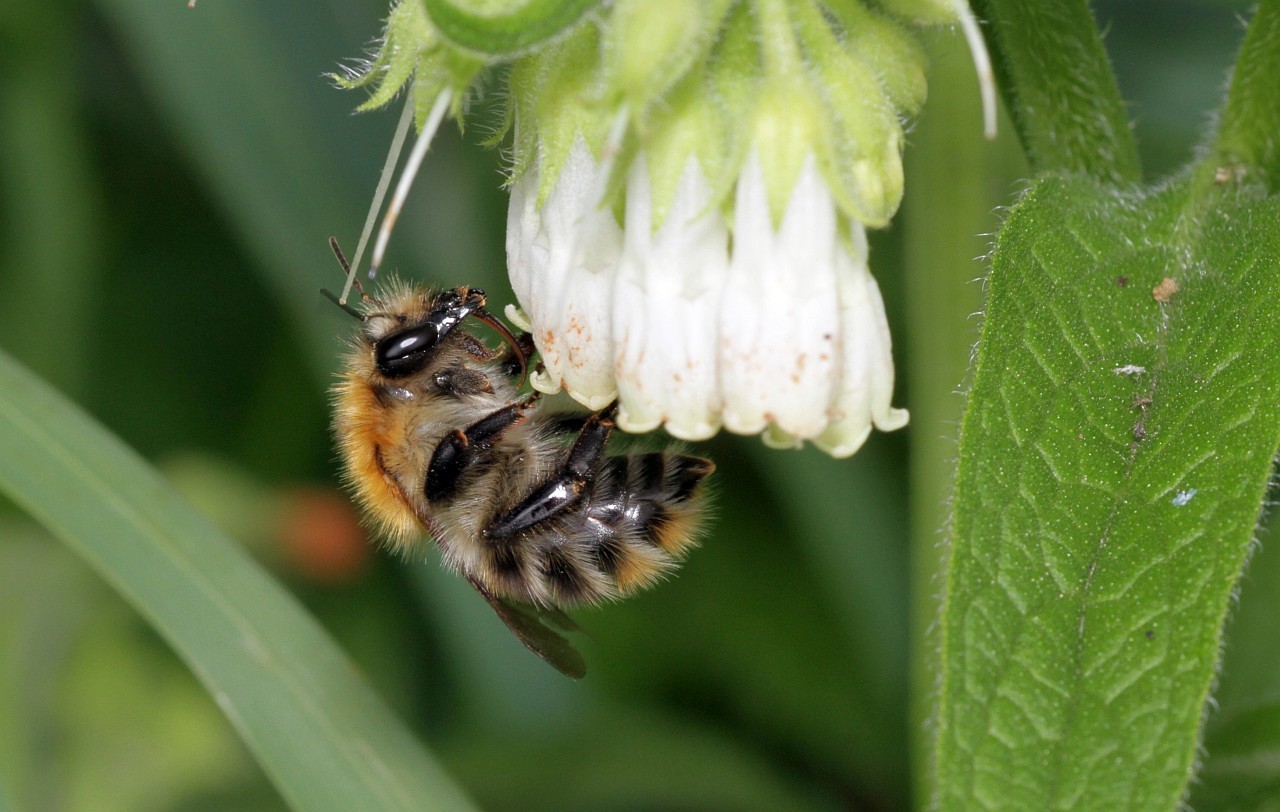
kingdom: Animalia
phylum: Arthropoda
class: Insecta
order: Hymenoptera
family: Apidae
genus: Bombus
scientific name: Bombus pascuorum
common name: Common carder bee
